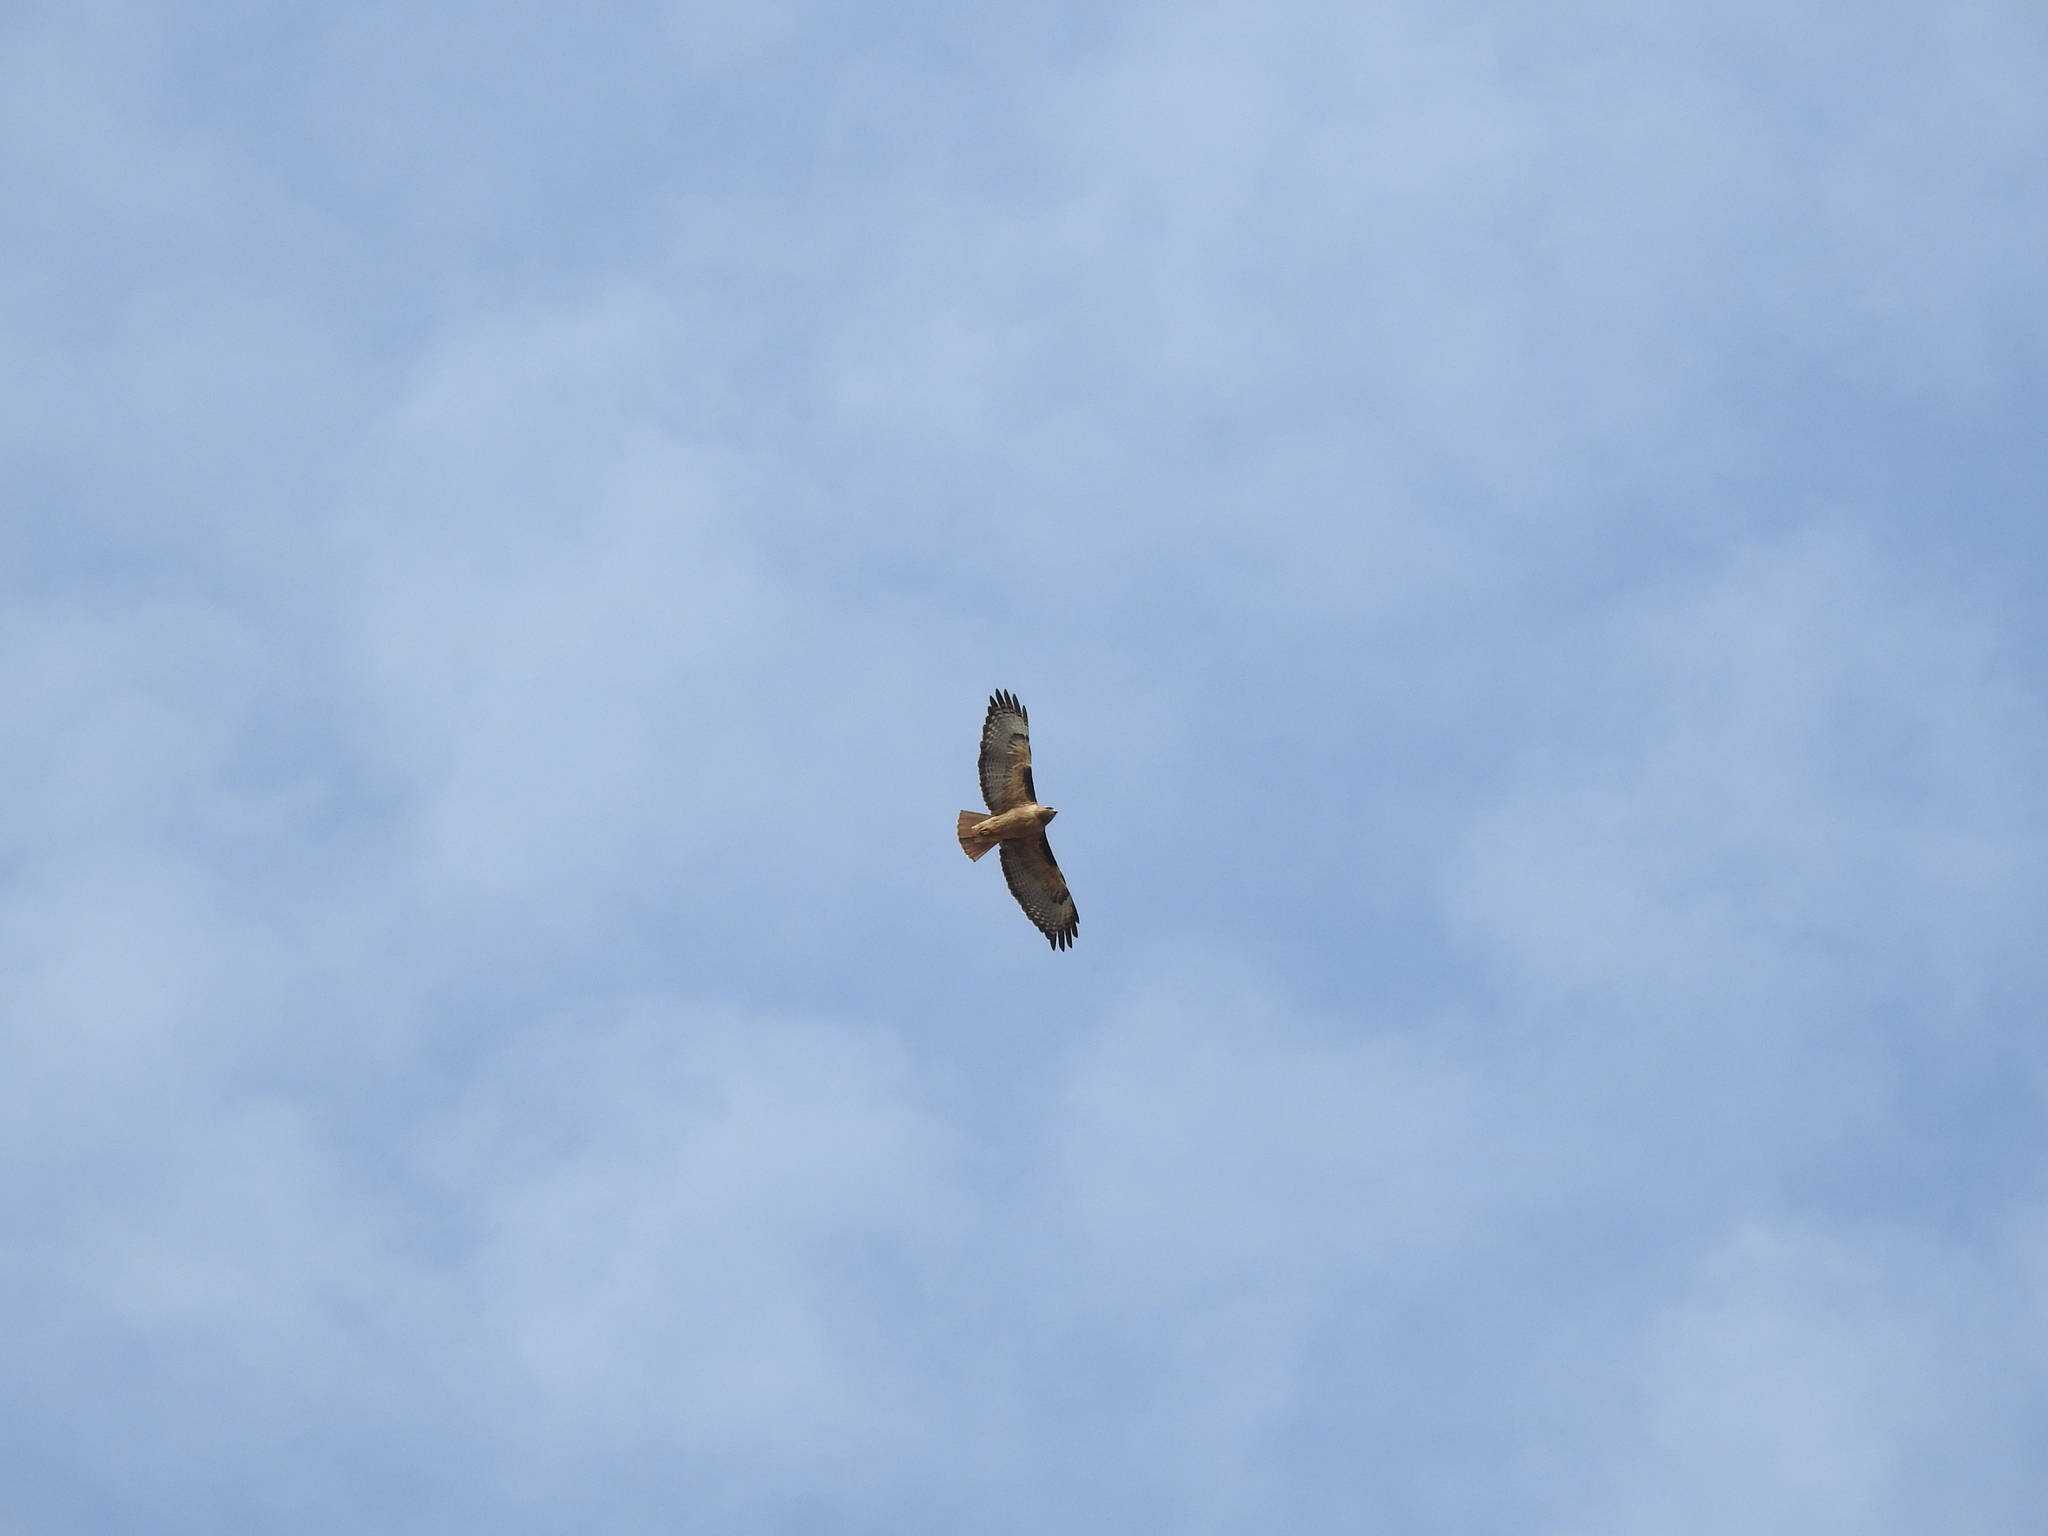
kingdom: Animalia
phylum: Chordata
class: Aves
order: Accipitriformes
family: Accipitridae
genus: Buteo
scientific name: Buteo jamaicensis
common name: Red-tailed hawk
